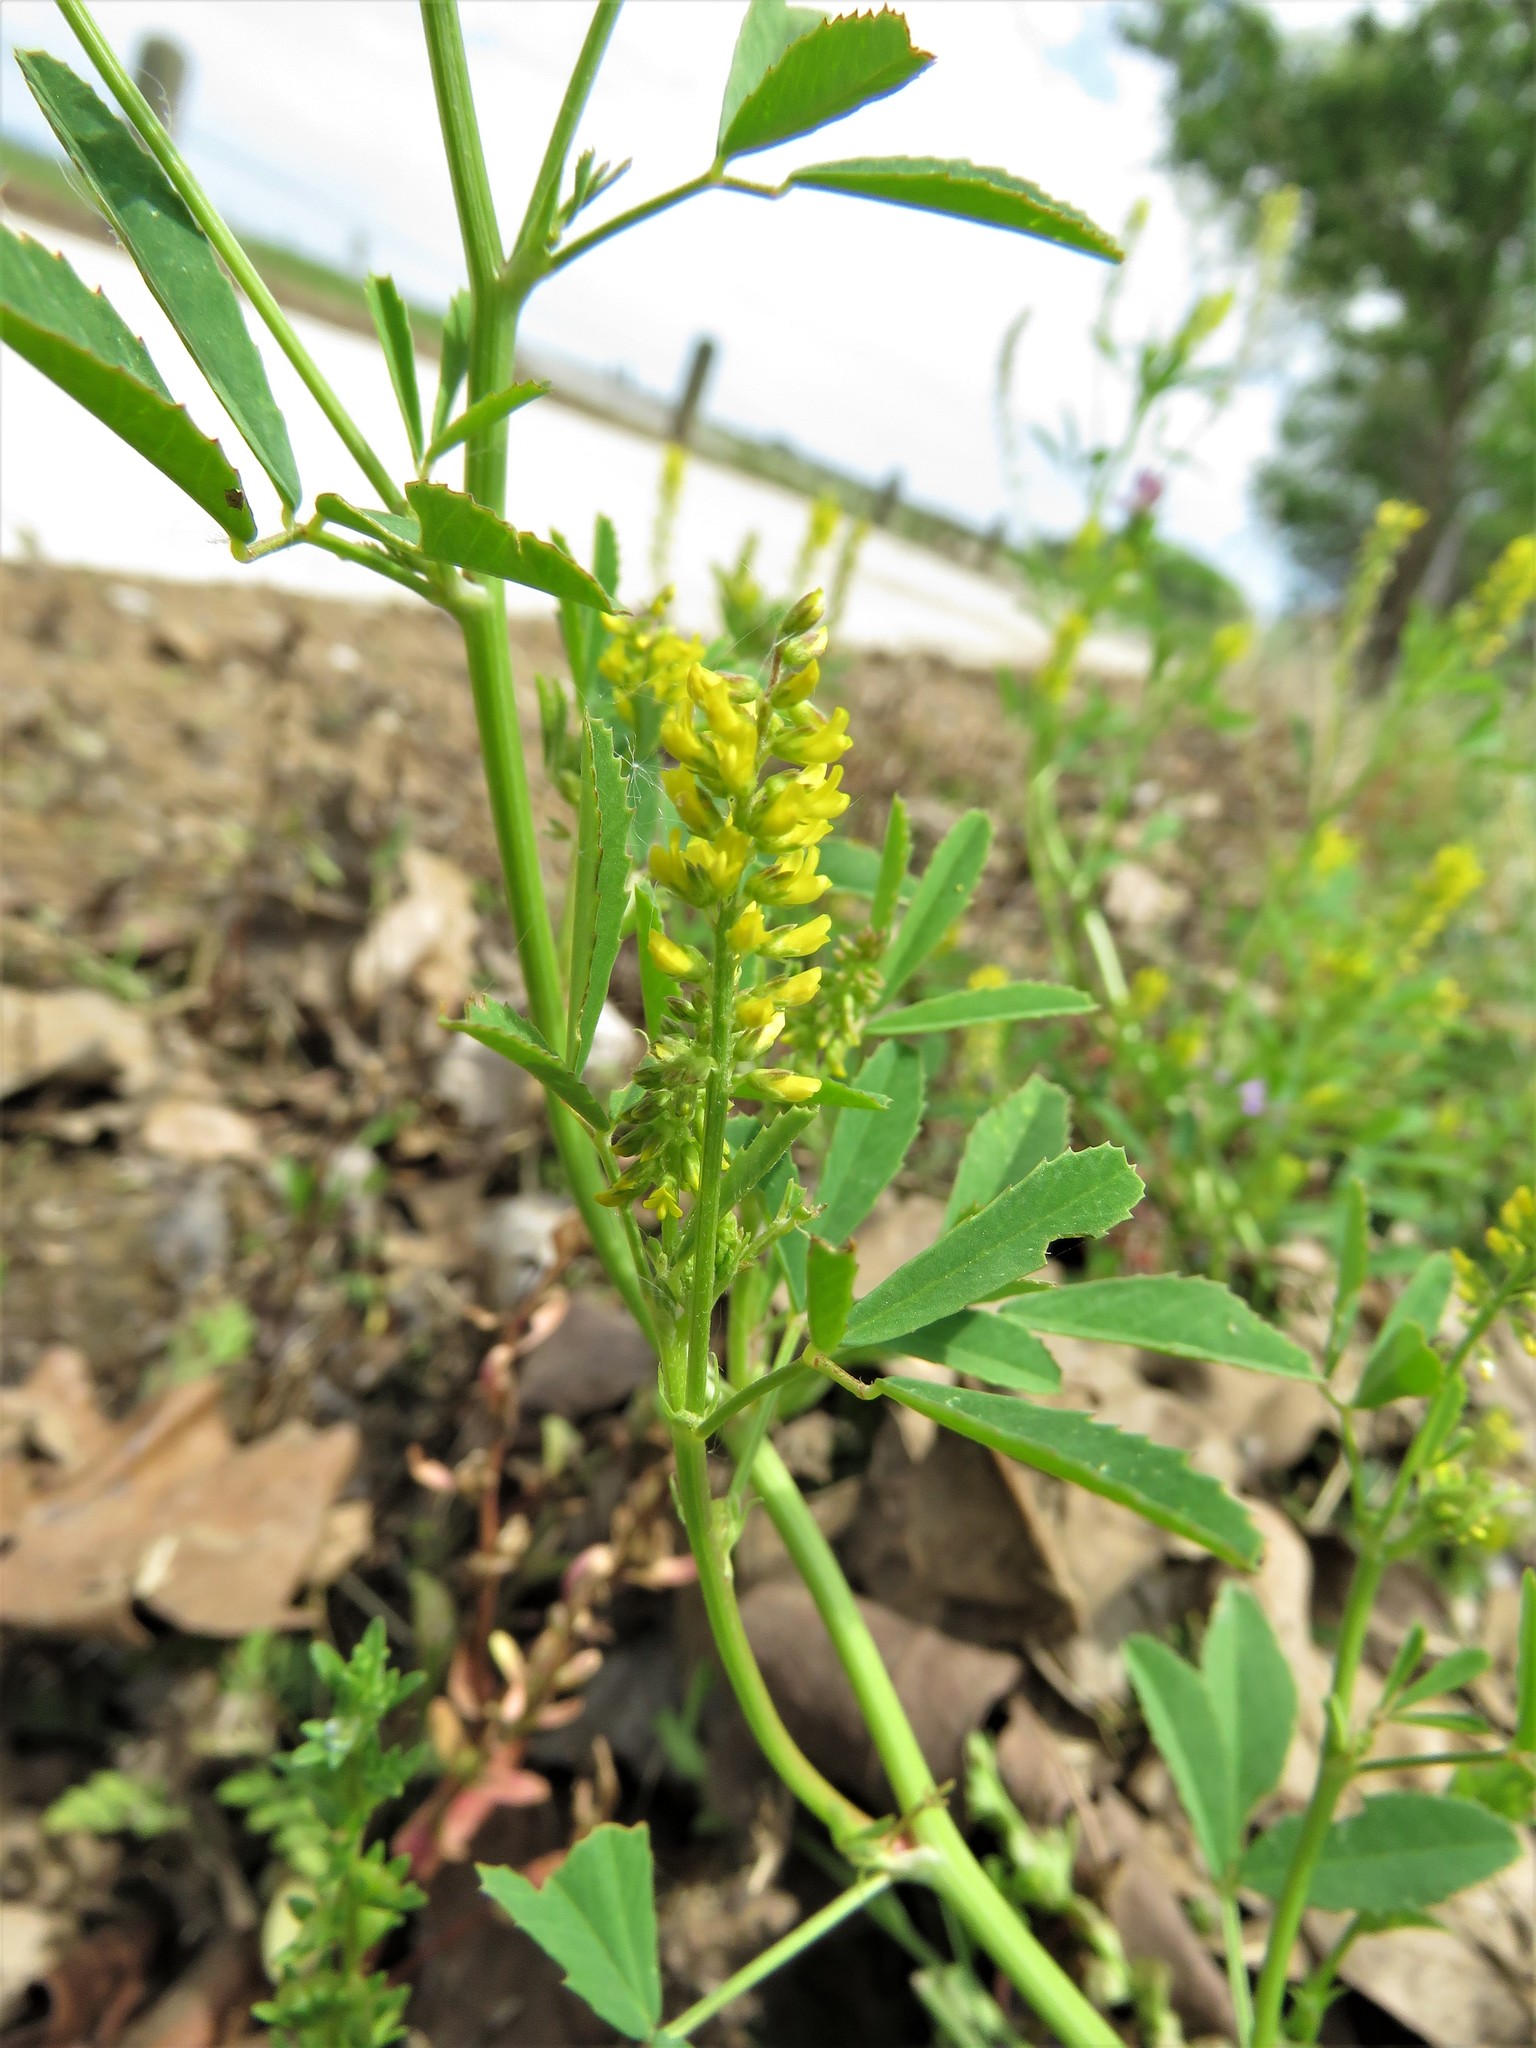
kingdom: Plantae
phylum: Tracheophyta
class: Magnoliopsida
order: Fabales
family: Fabaceae
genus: Melilotus
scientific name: Melilotus indicus
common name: Small melilot
